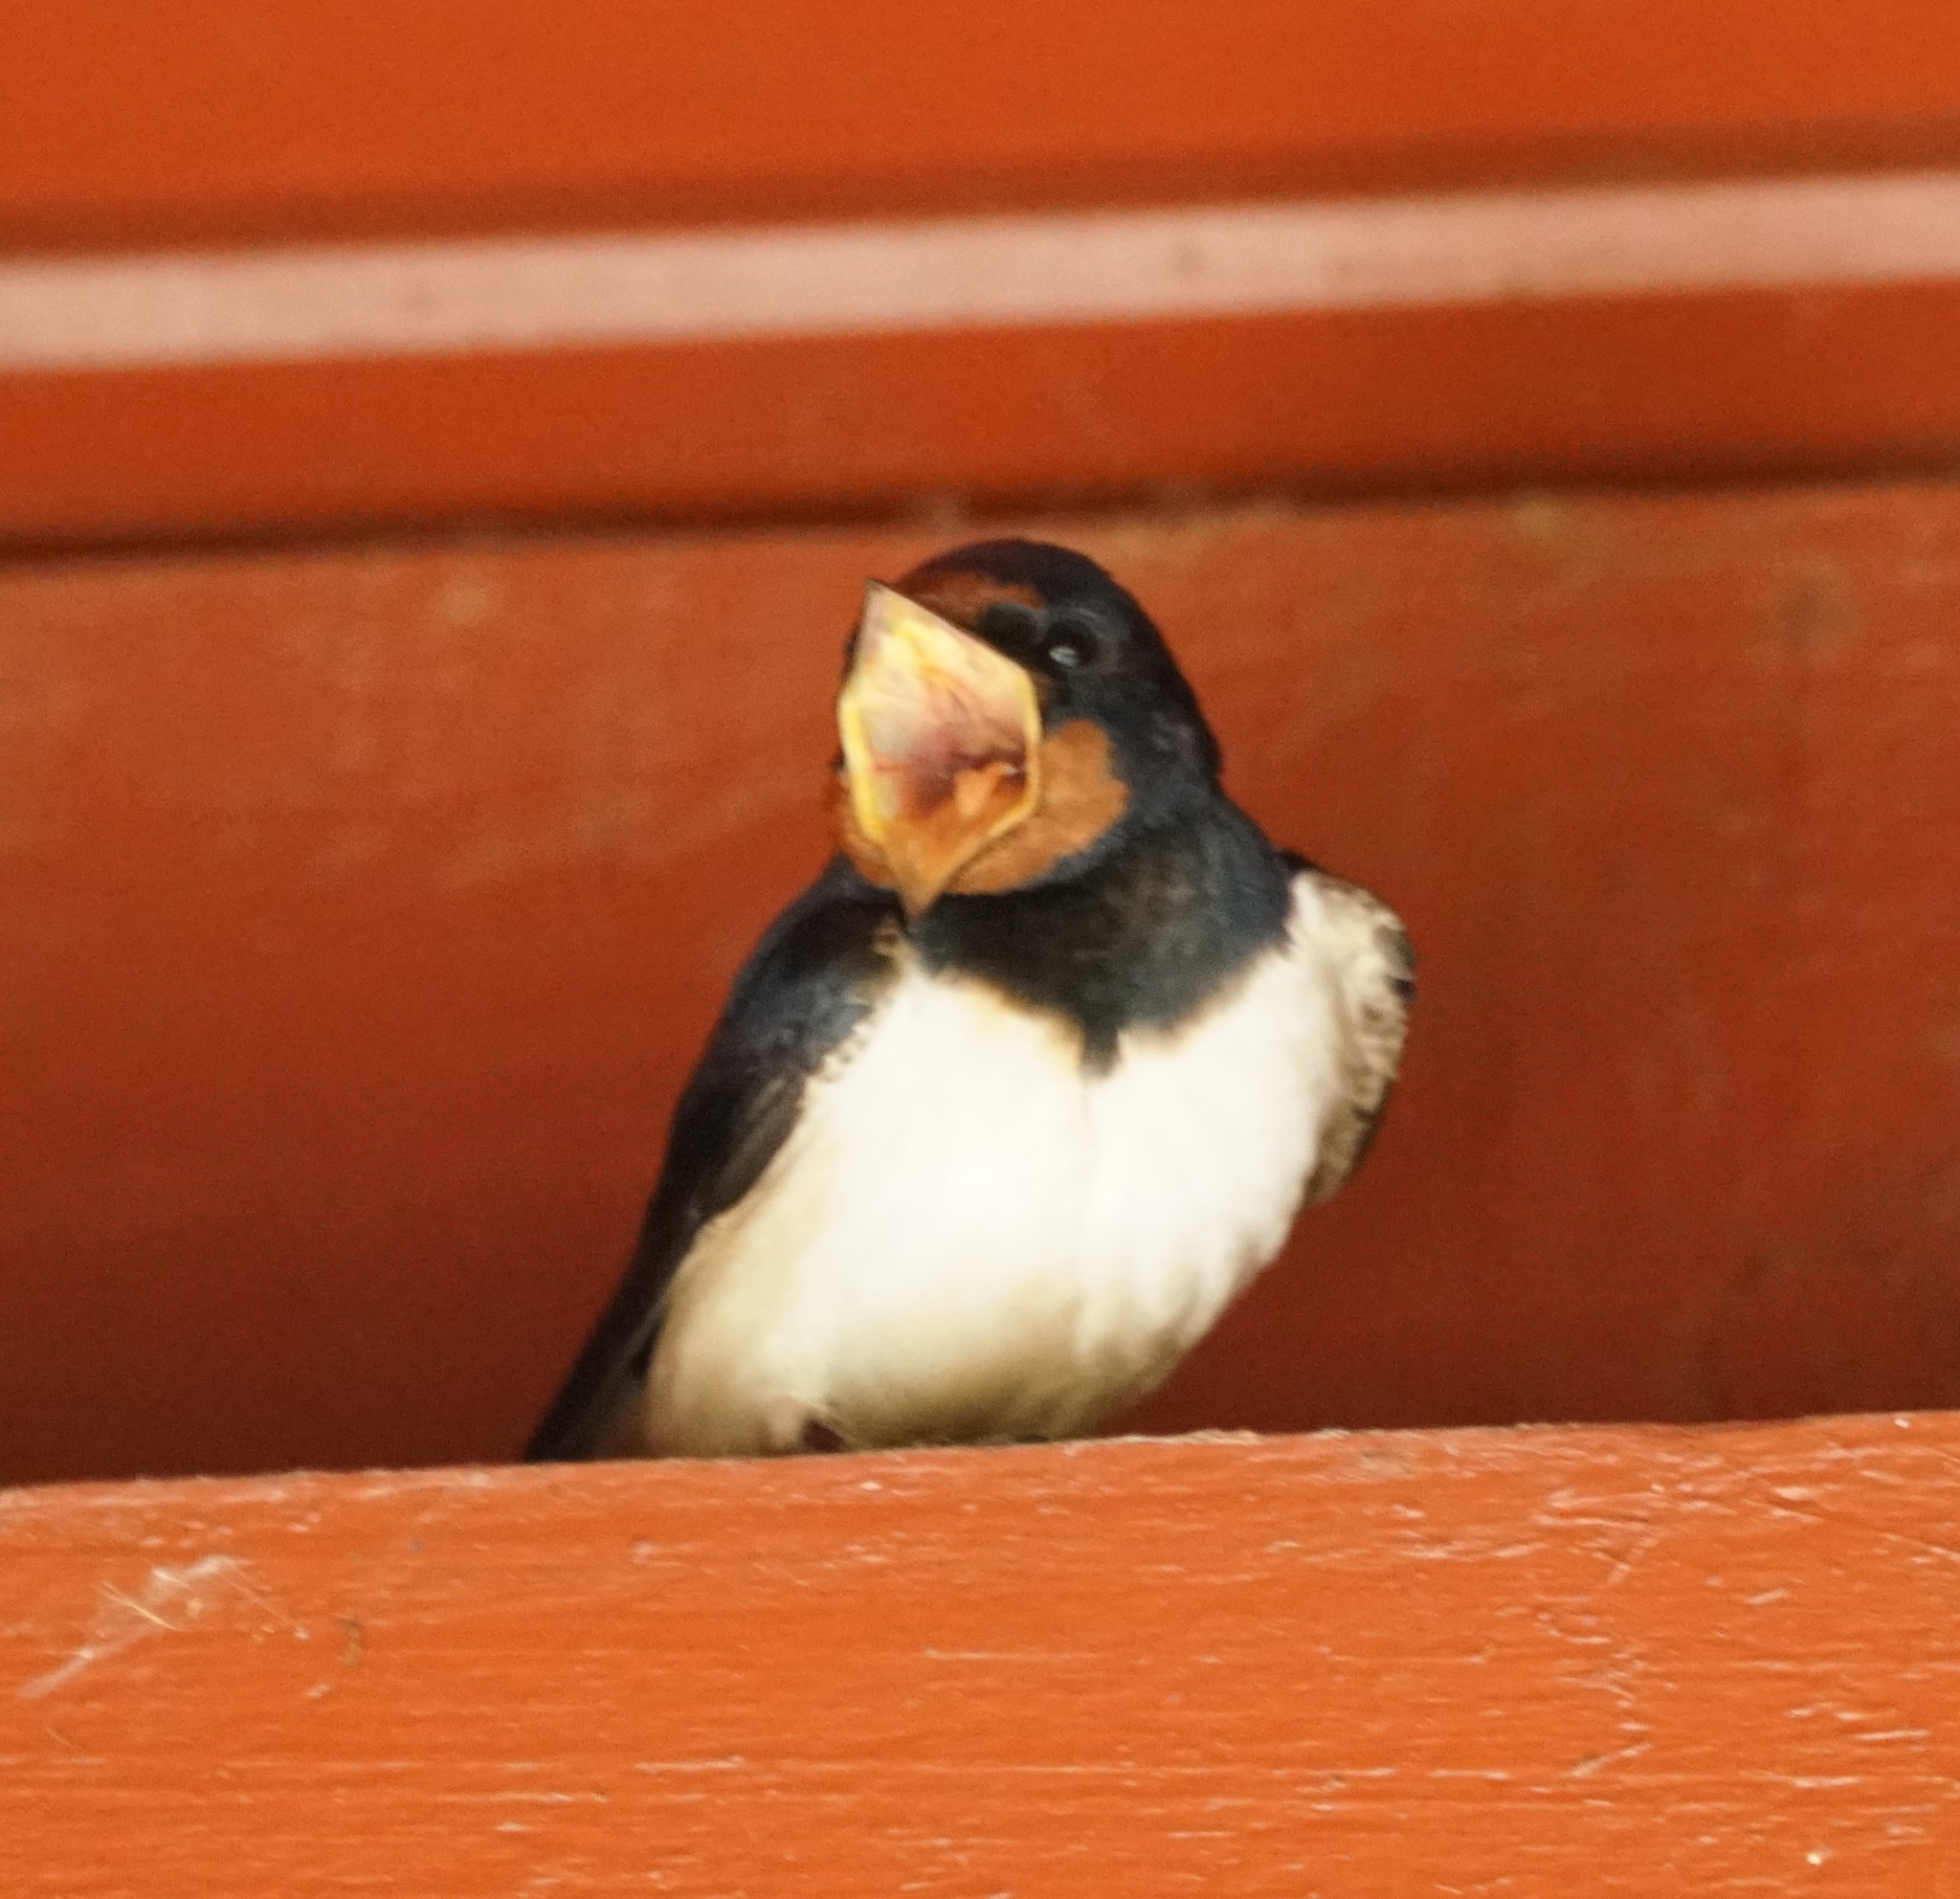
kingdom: Animalia
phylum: Chordata
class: Aves
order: Passeriformes
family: Hirundinidae
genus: Hirundo
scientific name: Hirundo rustica
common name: Barn swallow
